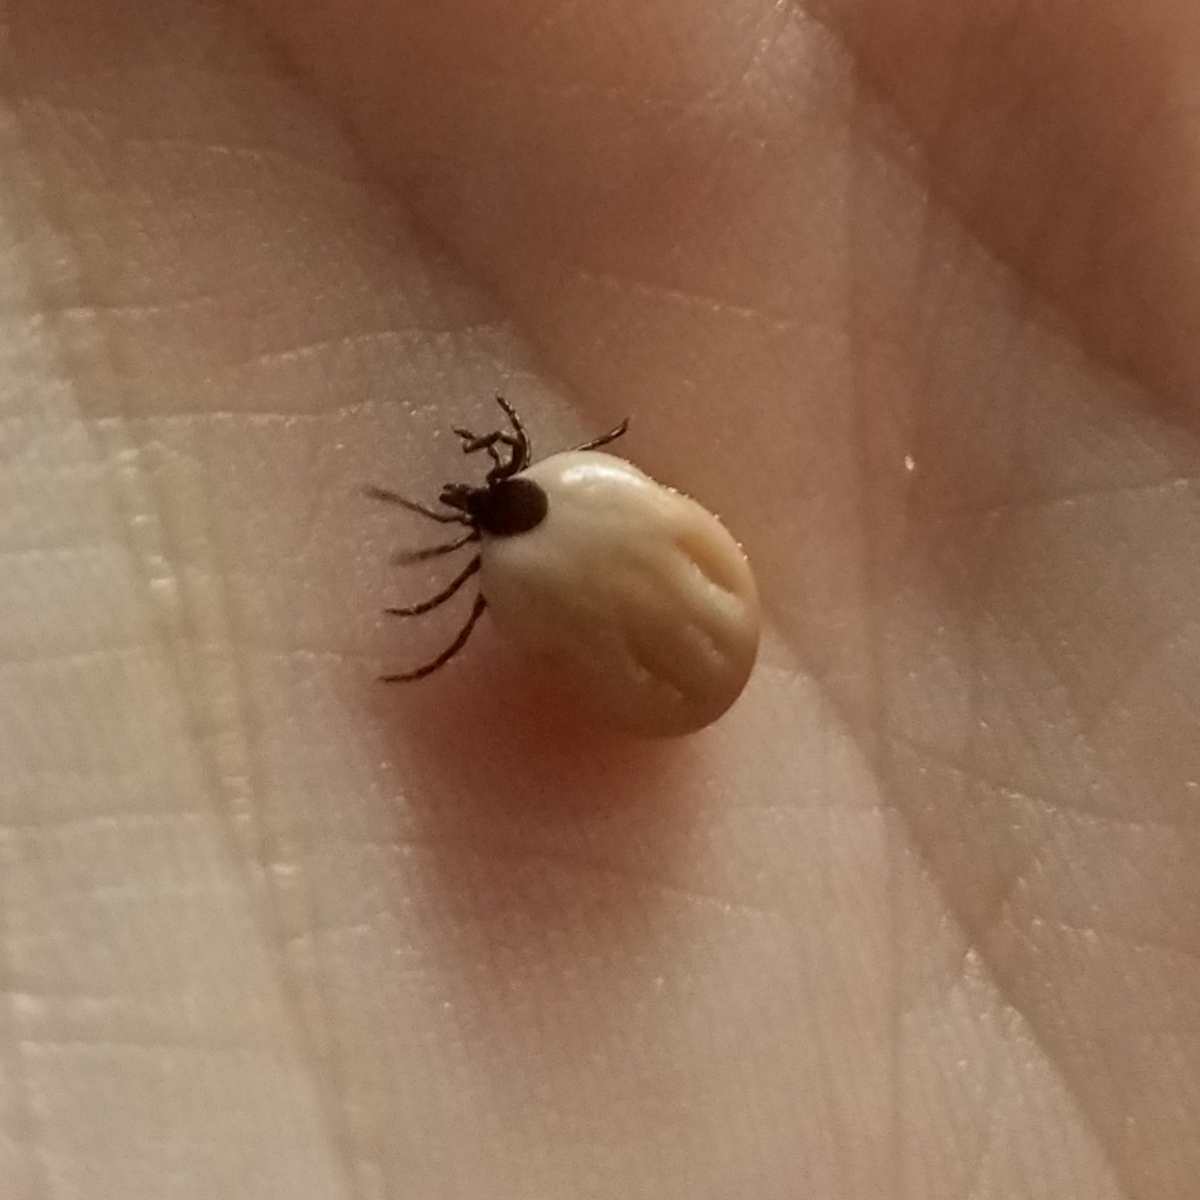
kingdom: Animalia
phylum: Arthropoda
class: Arachnida
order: Ixodida
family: Ixodidae
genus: Ixodes
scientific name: Ixodes ricinus
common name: Castor bean tick
